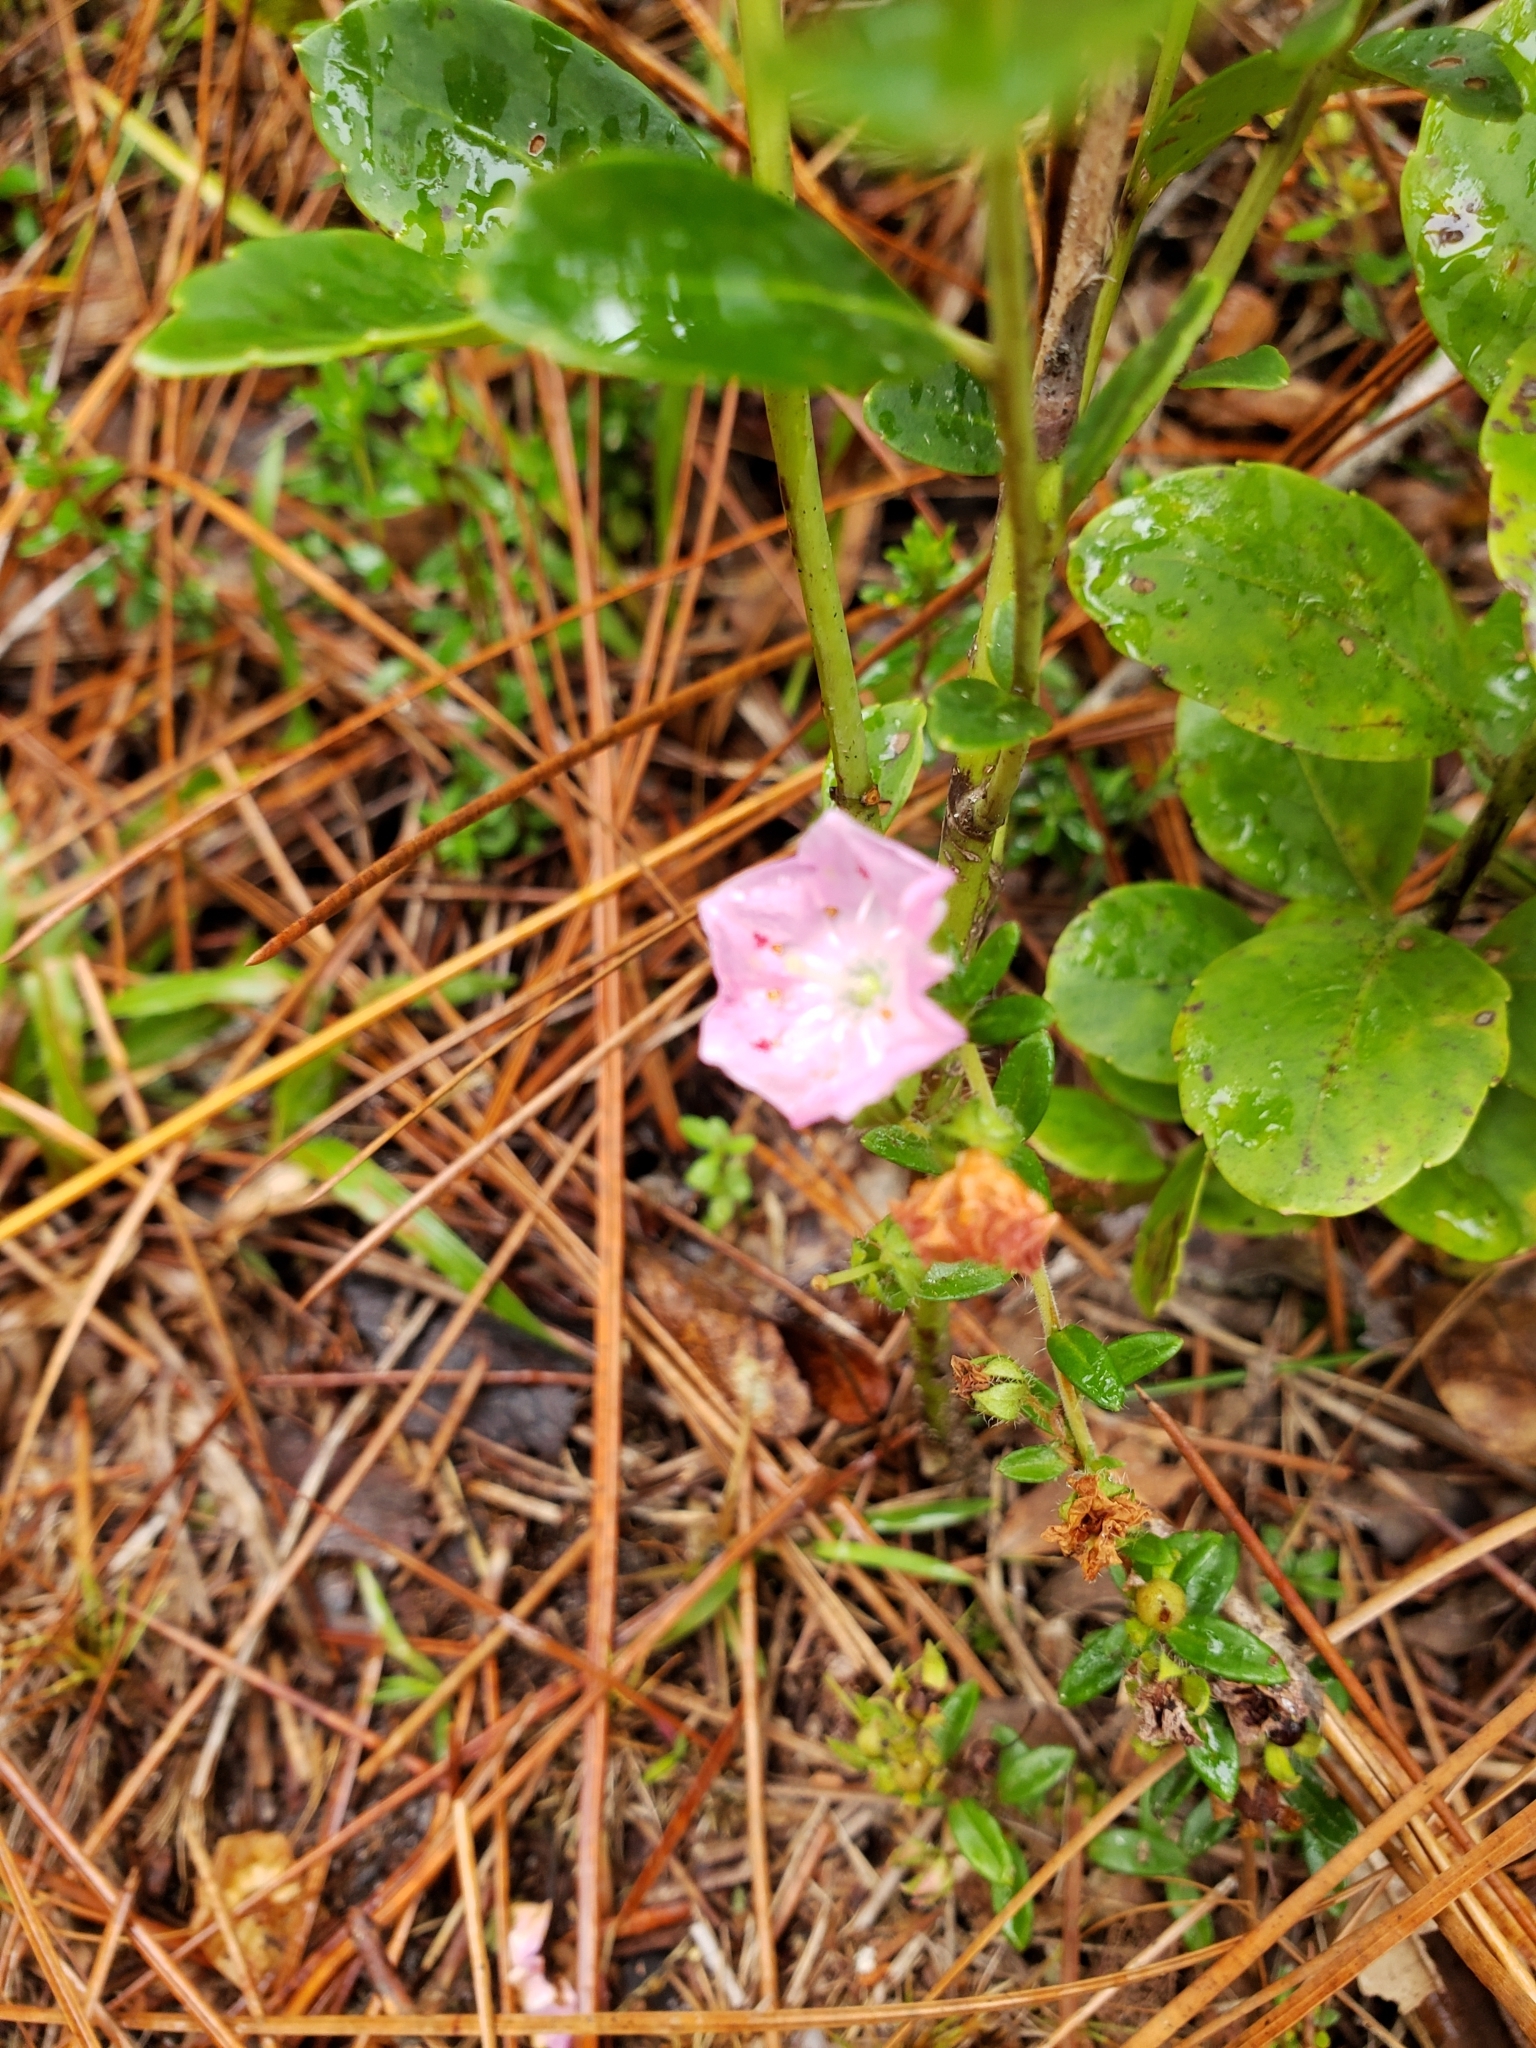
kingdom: Plantae
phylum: Tracheophyta
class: Magnoliopsida
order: Ericales
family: Ericaceae
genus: Kalmia
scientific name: Kalmia hirsuta
